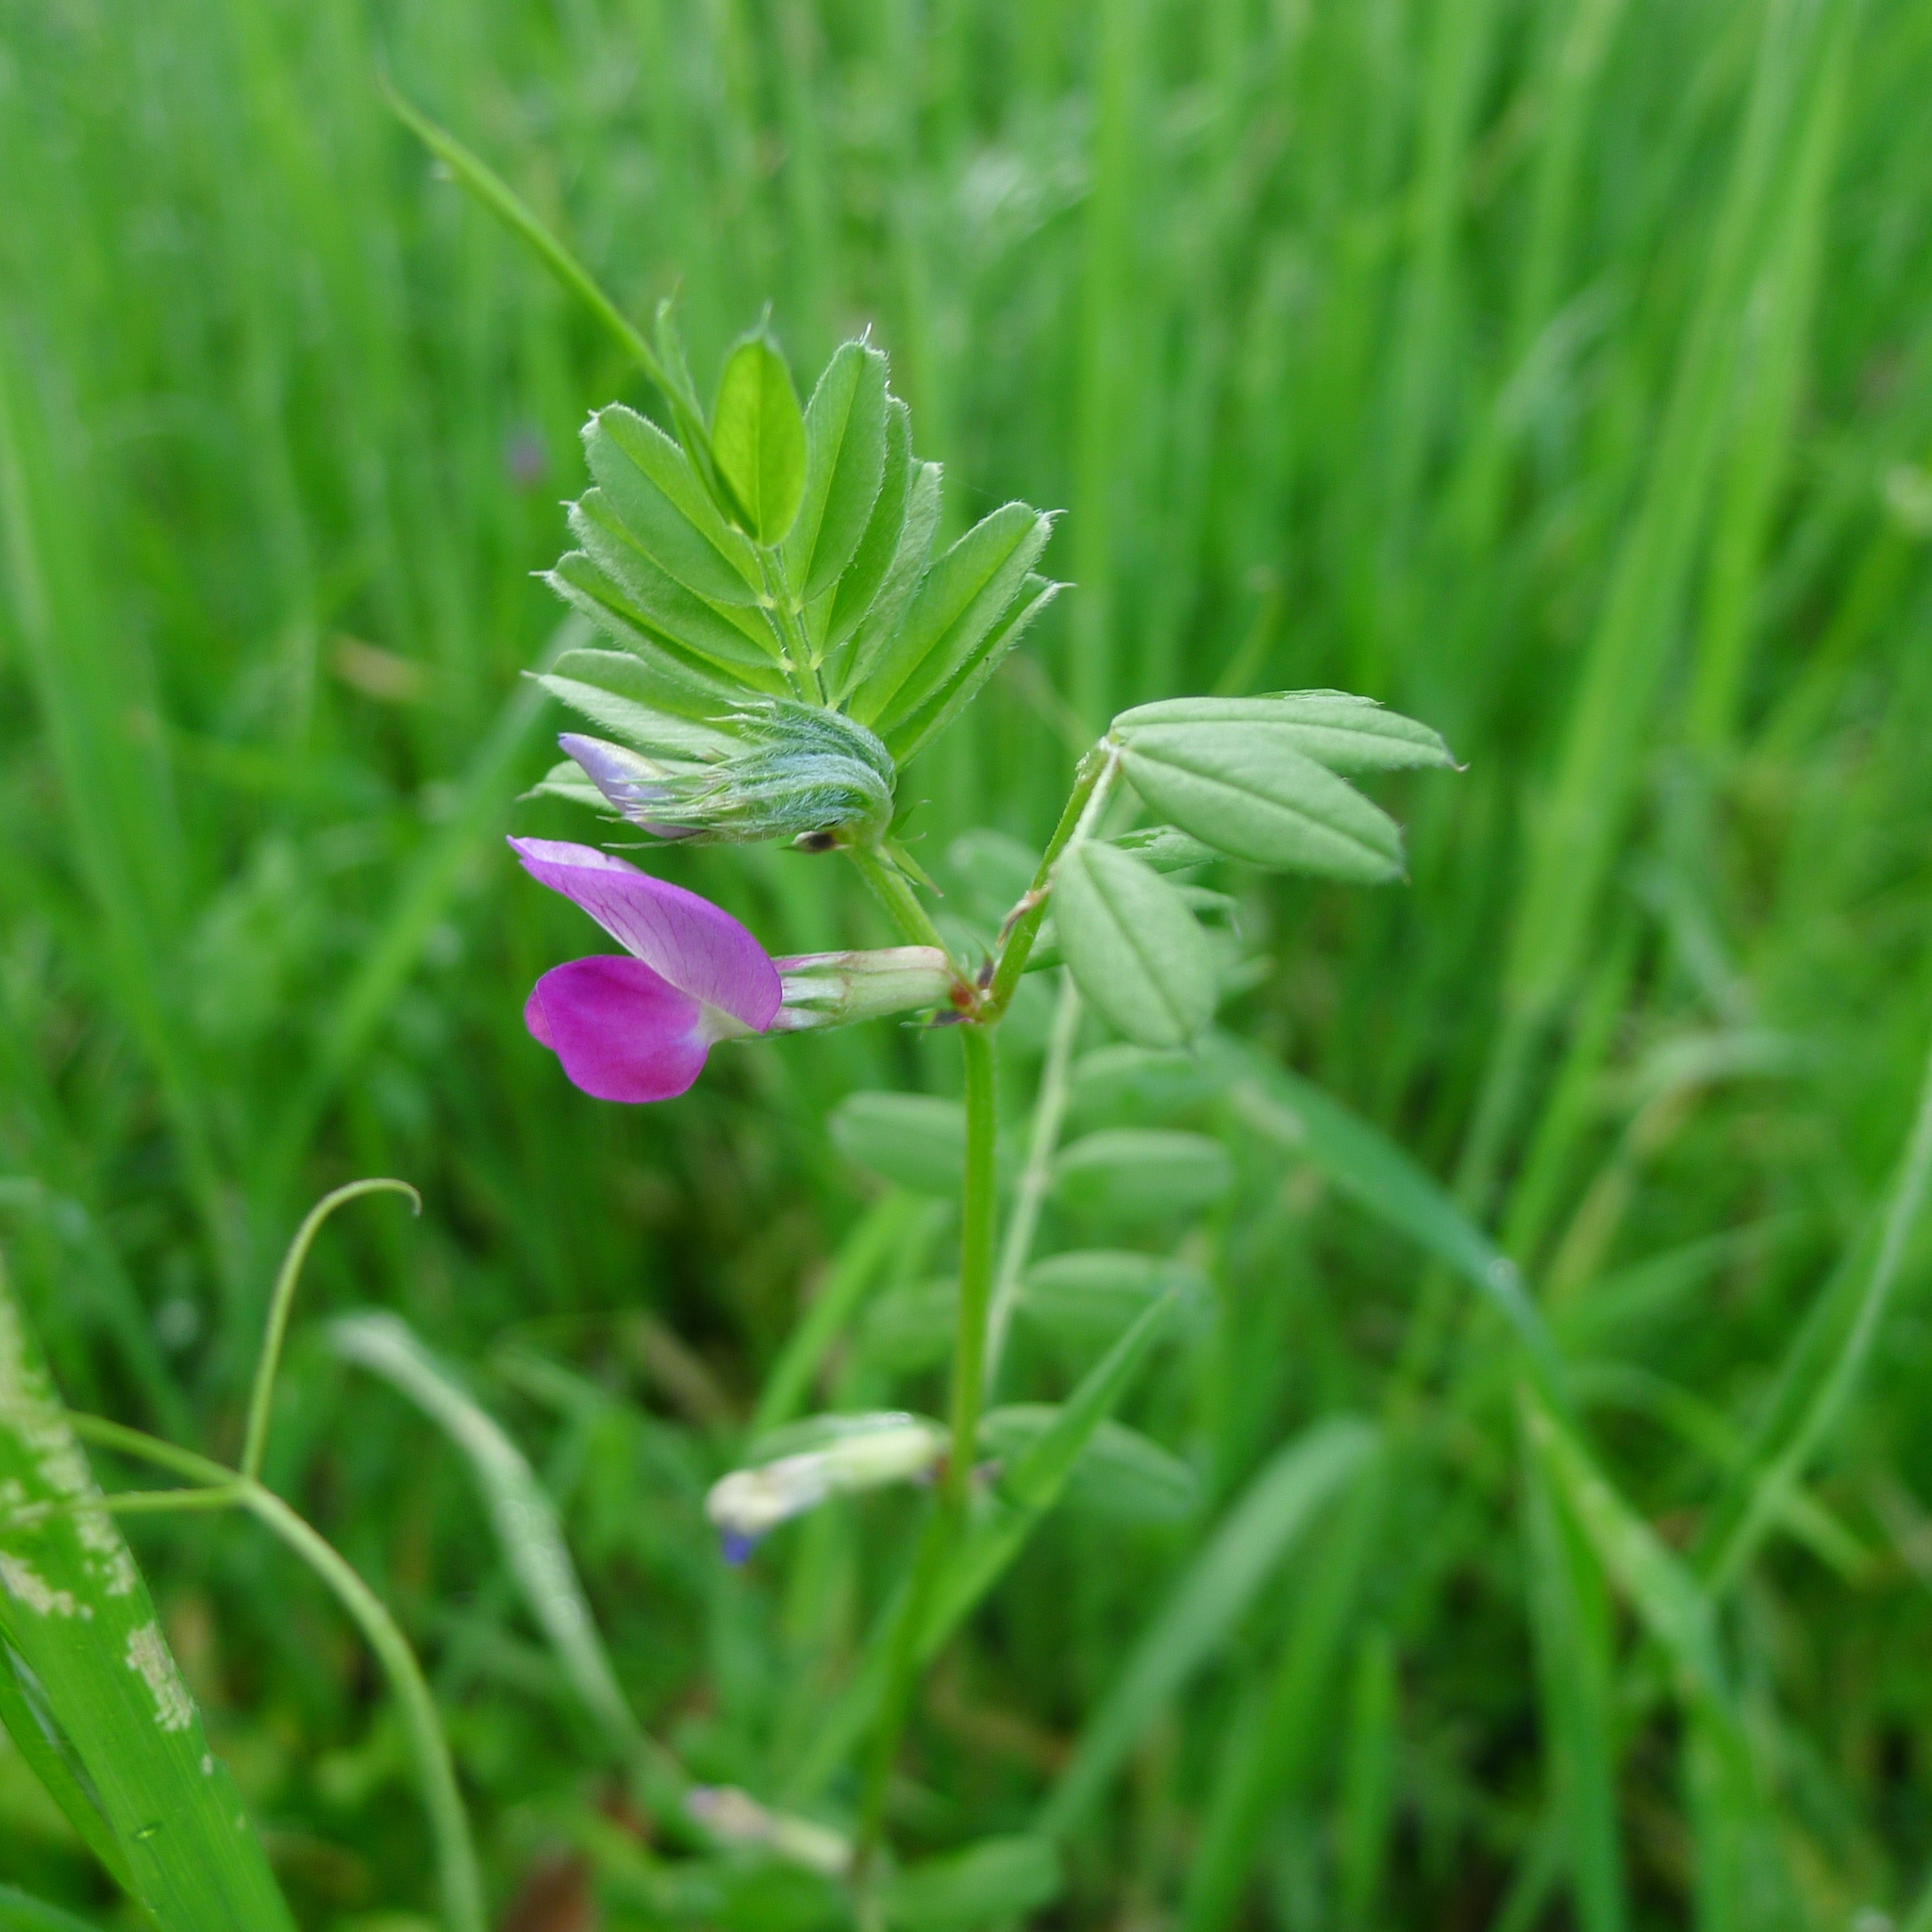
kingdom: Plantae
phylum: Tracheophyta
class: Magnoliopsida
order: Fabales
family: Fabaceae
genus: Vicia
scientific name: Vicia sativa
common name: Garden vetch
